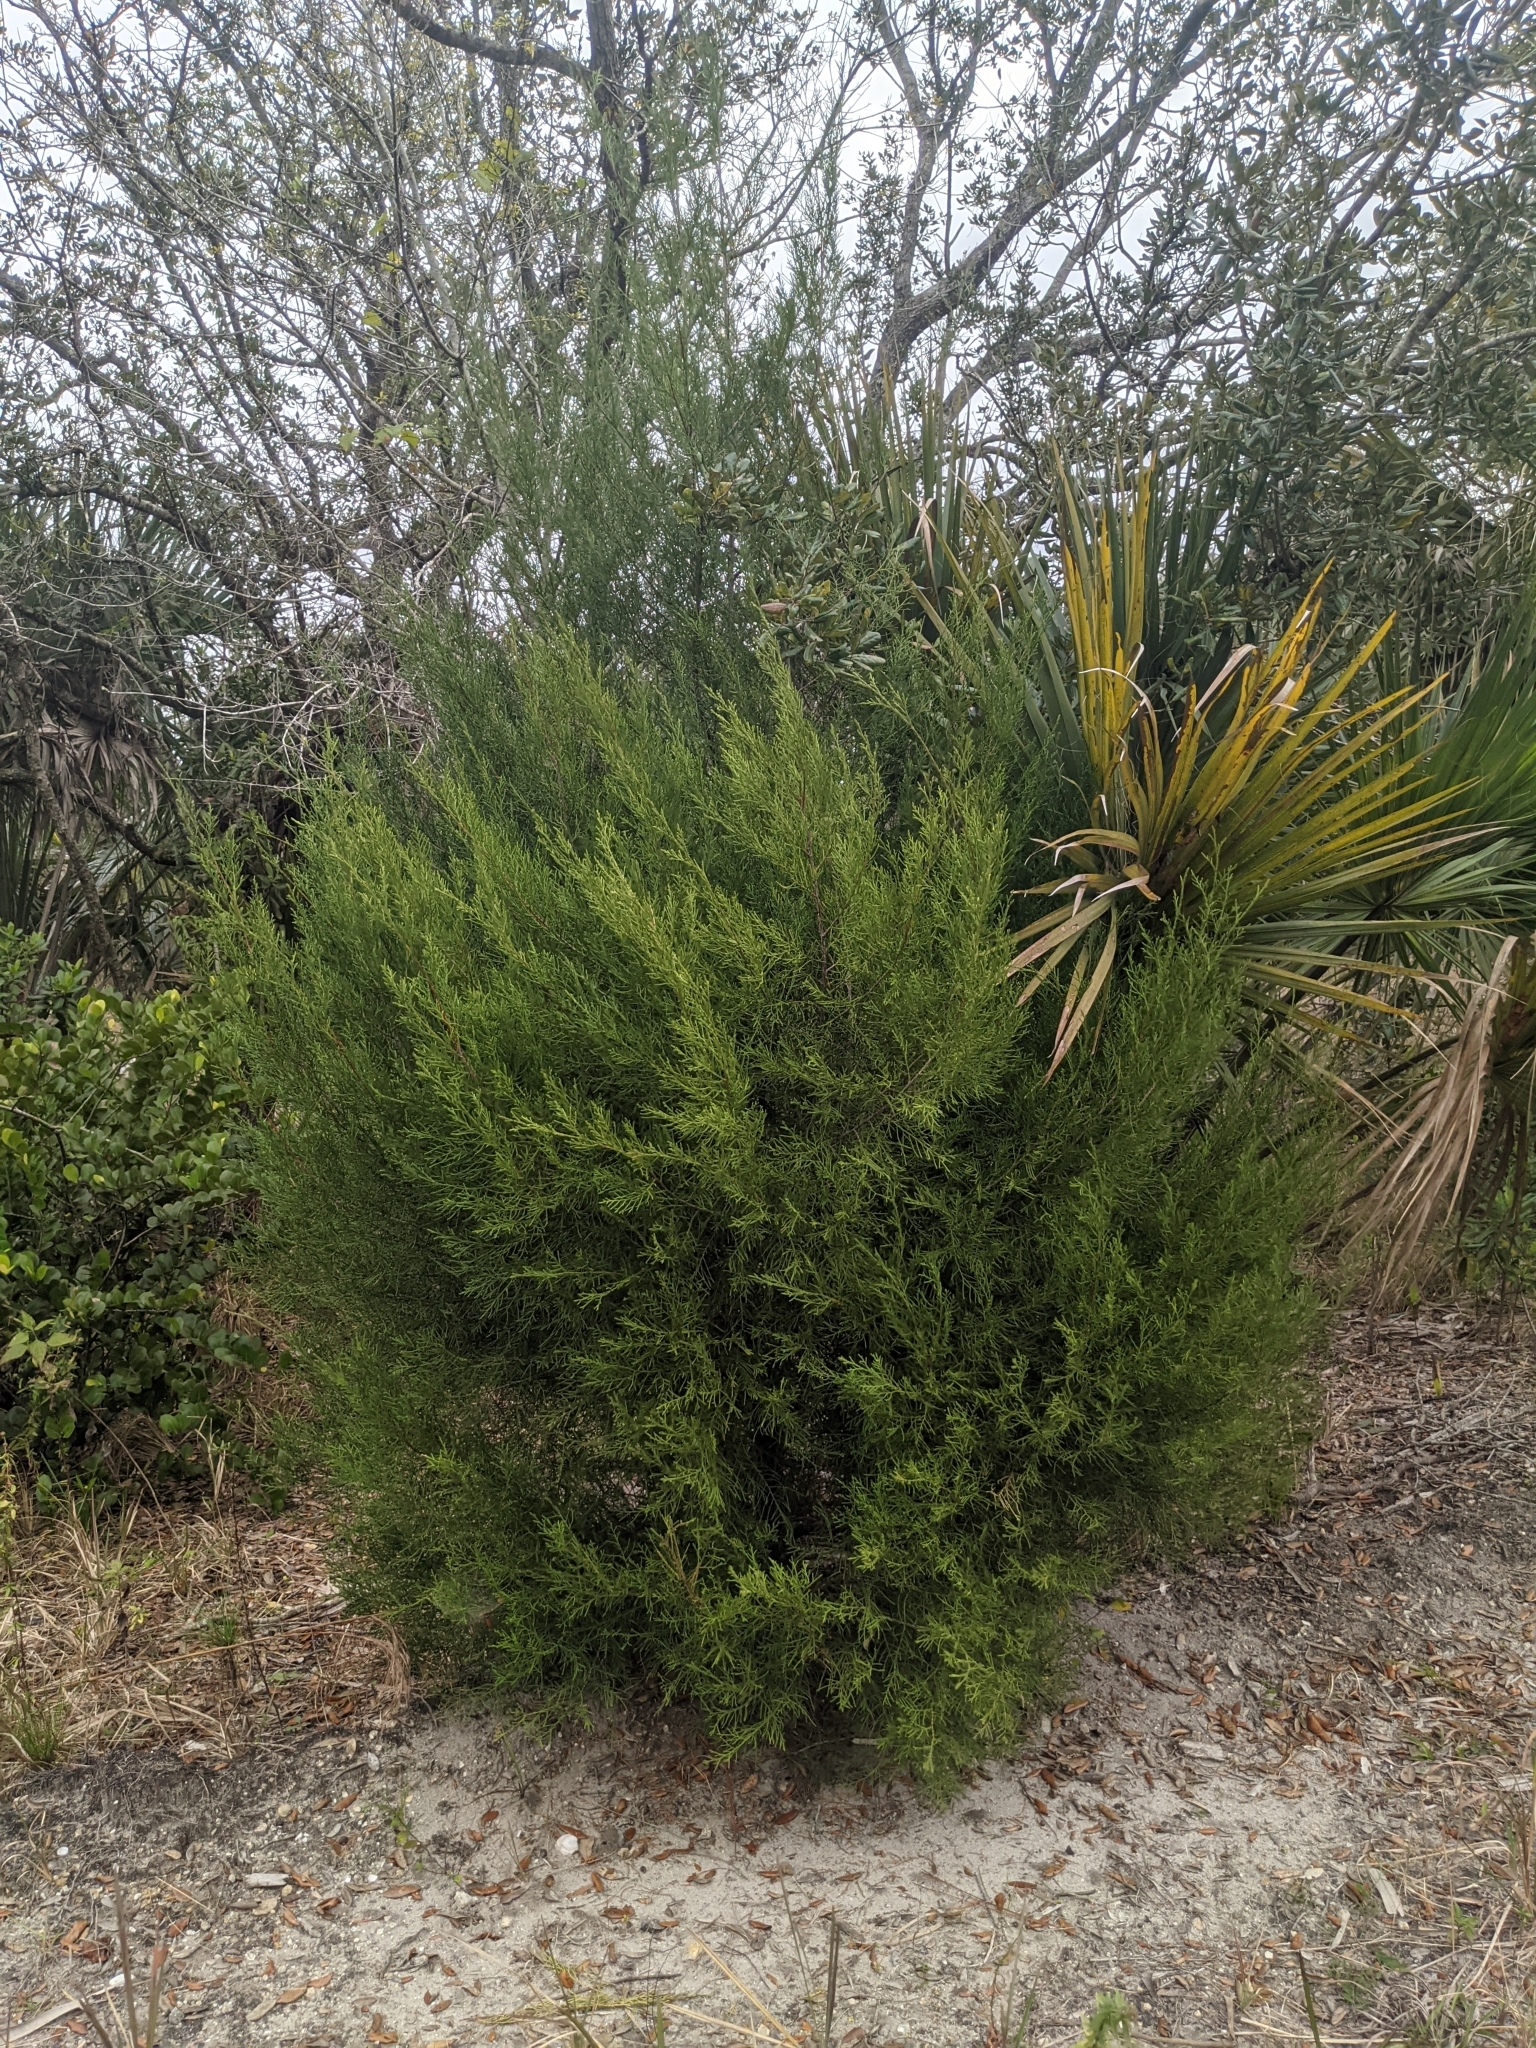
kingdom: Plantae
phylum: Tracheophyta
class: Pinopsida
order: Pinales
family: Cupressaceae
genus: Juniperus
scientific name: Juniperus virginiana
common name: Red juniper
